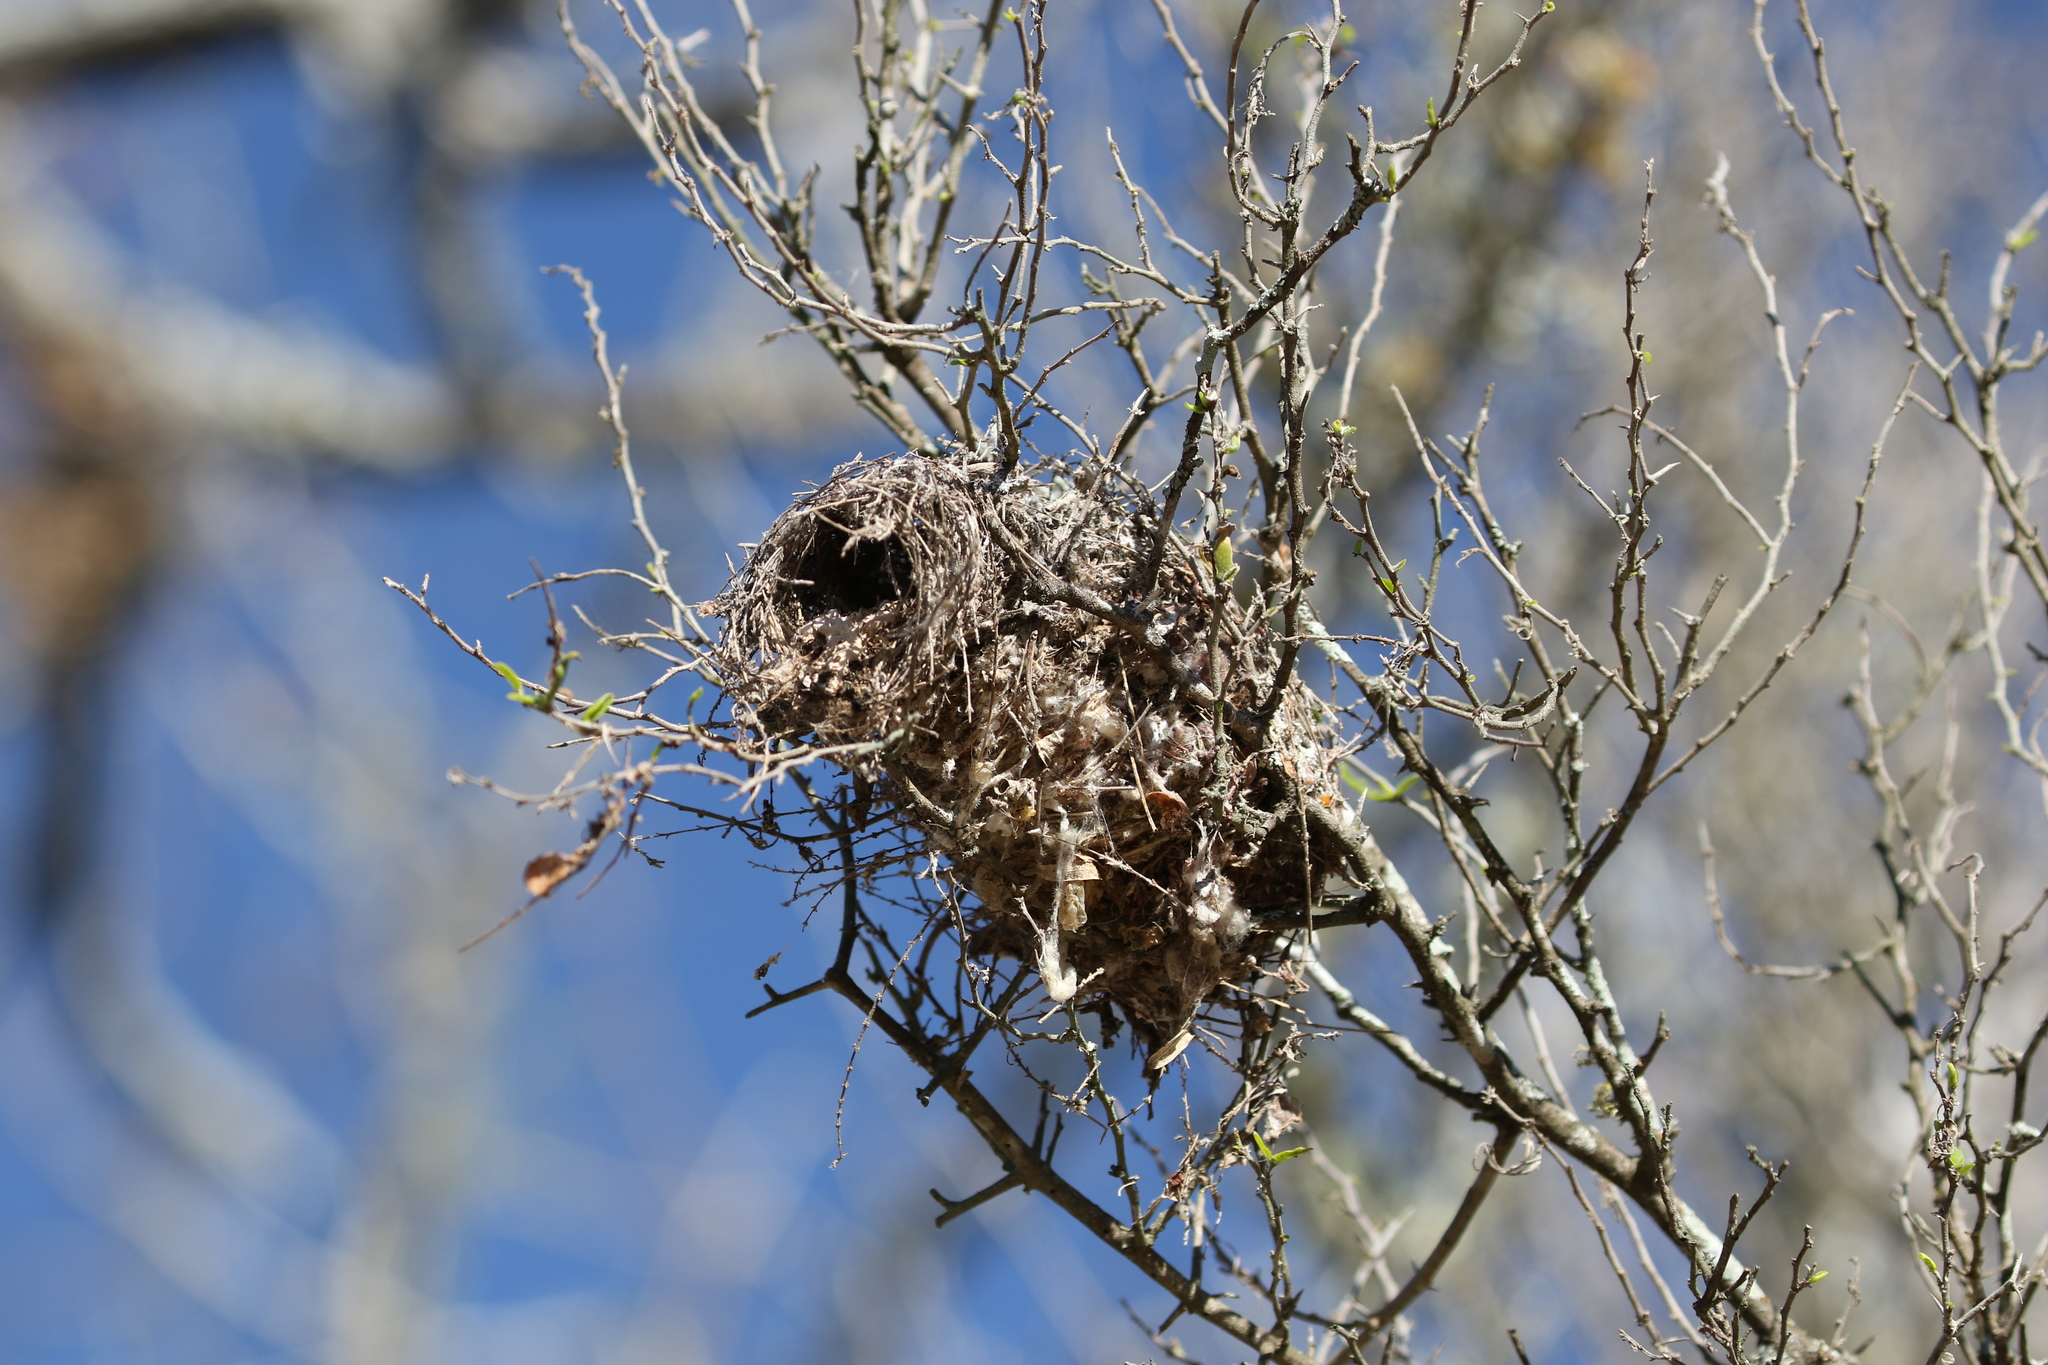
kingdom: Animalia
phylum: Chordata
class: Aves
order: Passeriformes
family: Remizidae
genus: Auriparus
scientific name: Auriparus flaviceps
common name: Verdin
